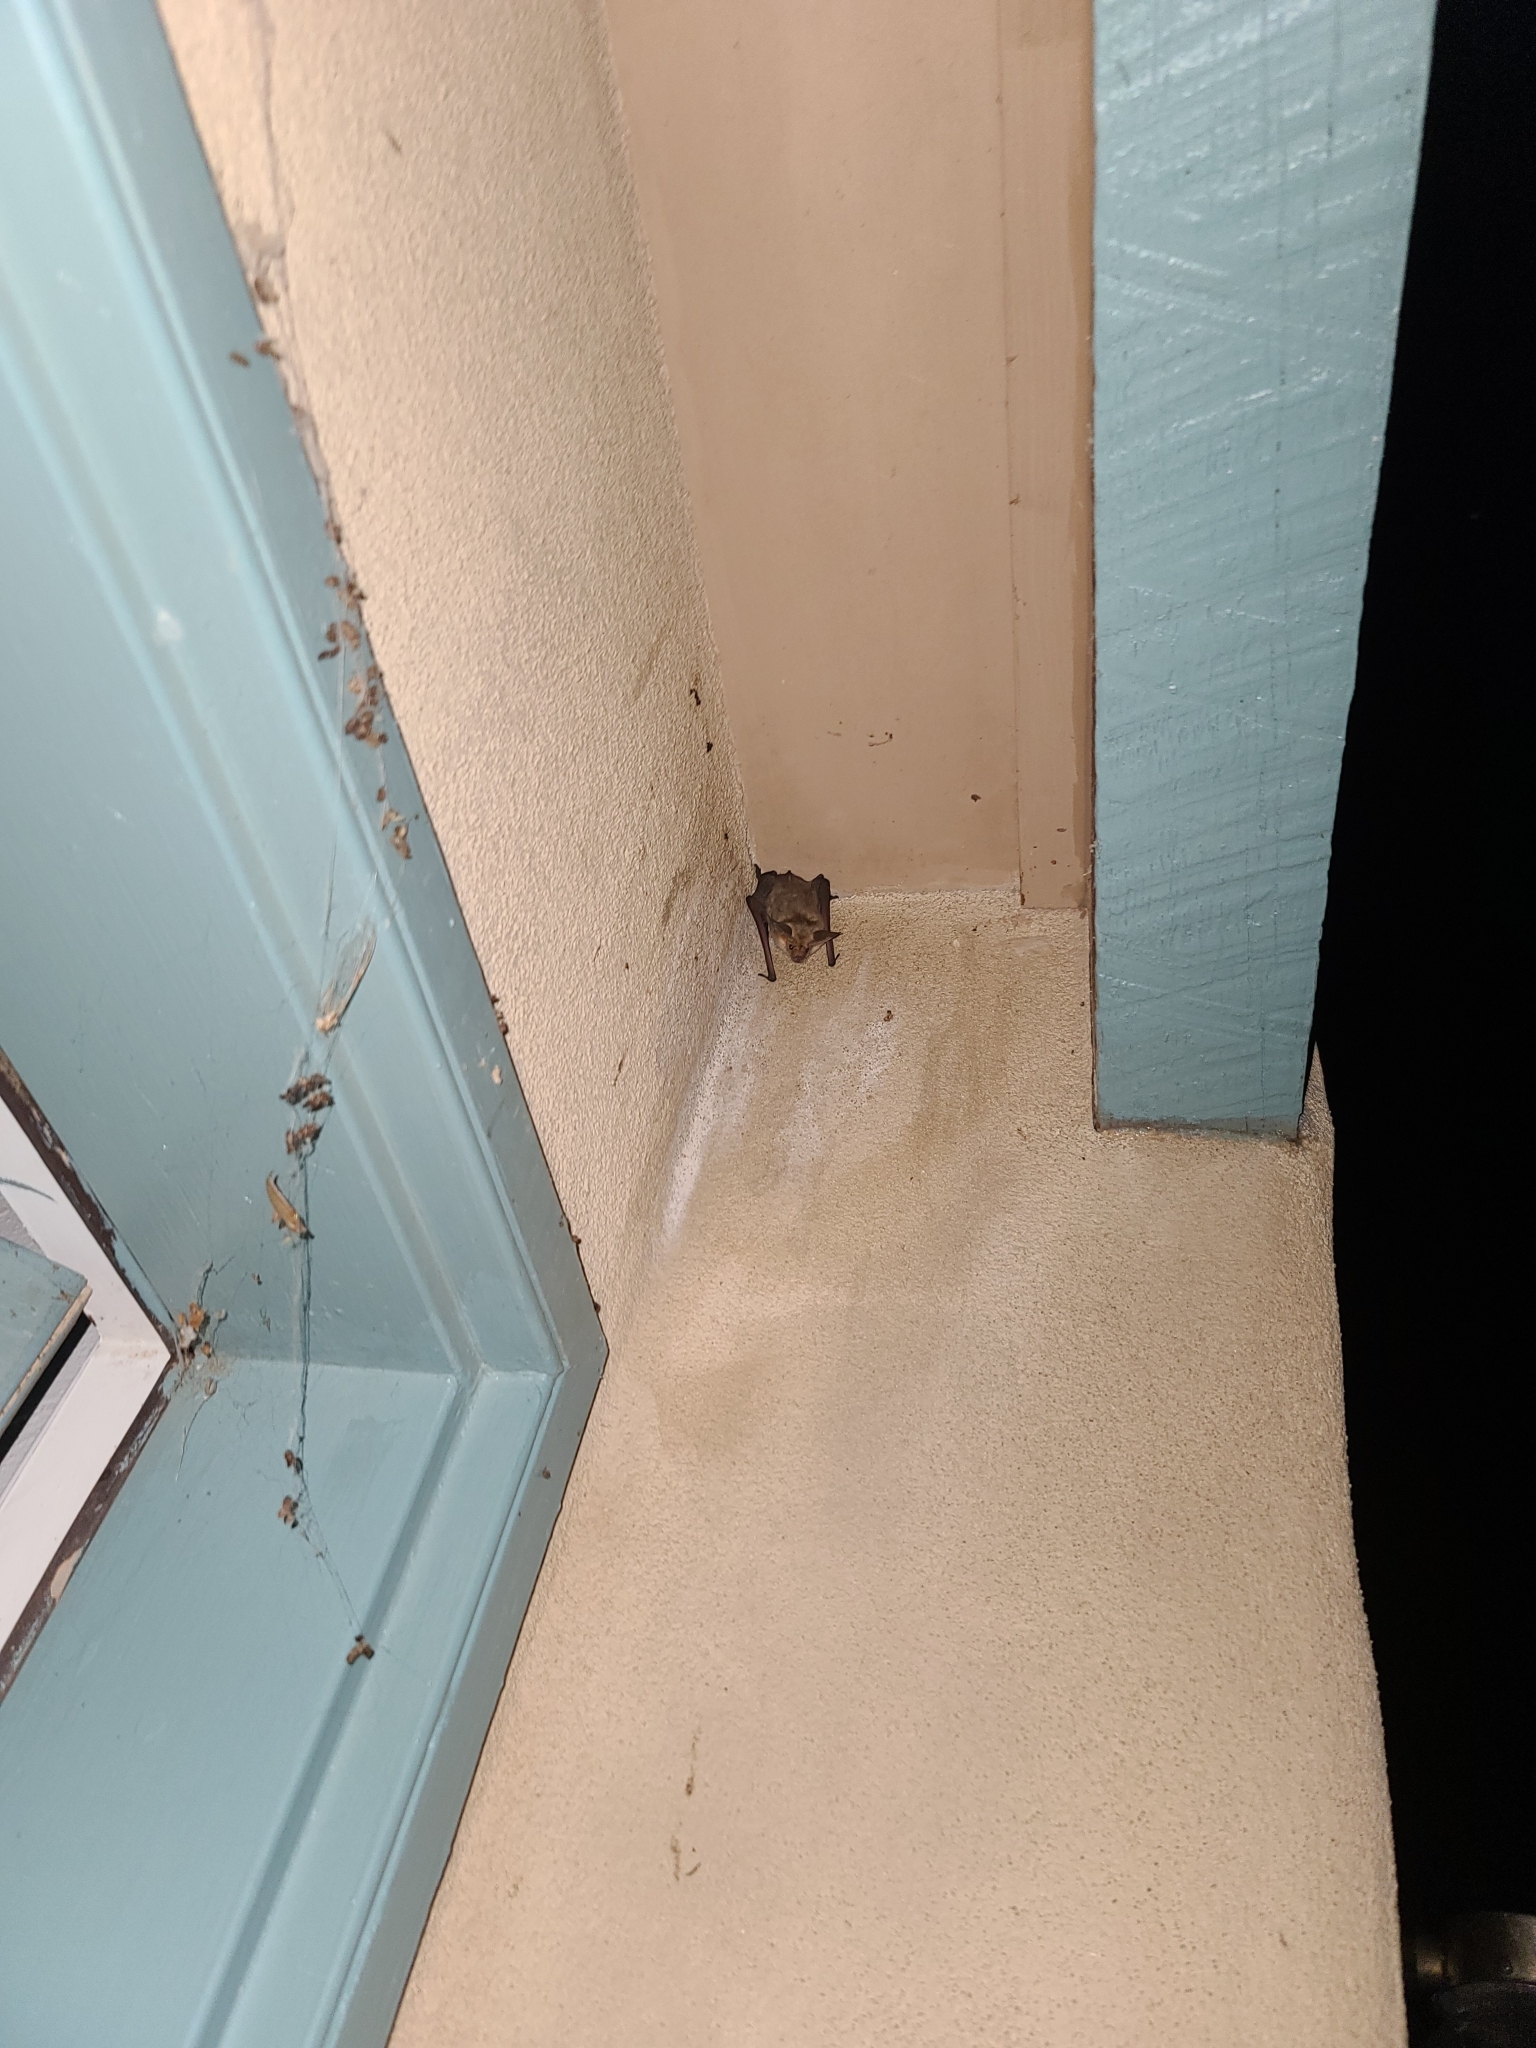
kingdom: Animalia
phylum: Chordata
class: Mammalia
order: Chiroptera
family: Vespertilionidae
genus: Antrozous
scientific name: Antrozous pallidus
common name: Pallid bat
